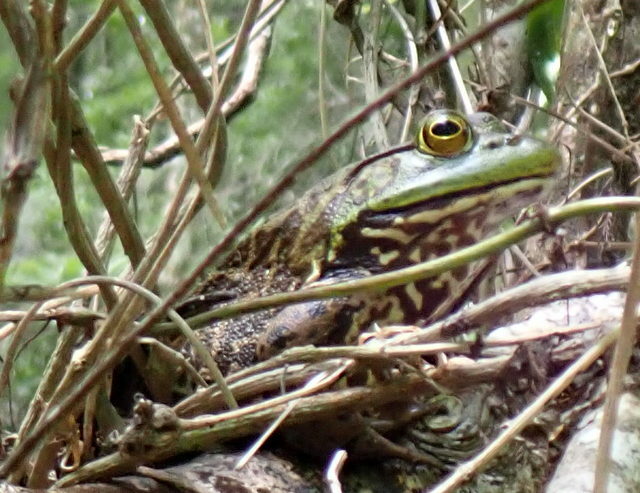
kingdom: Animalia
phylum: Chordata
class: Amphibia
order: Anura
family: Ranidae
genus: Lithobates
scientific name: Lithobates catesbeianus
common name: American bullfrog
